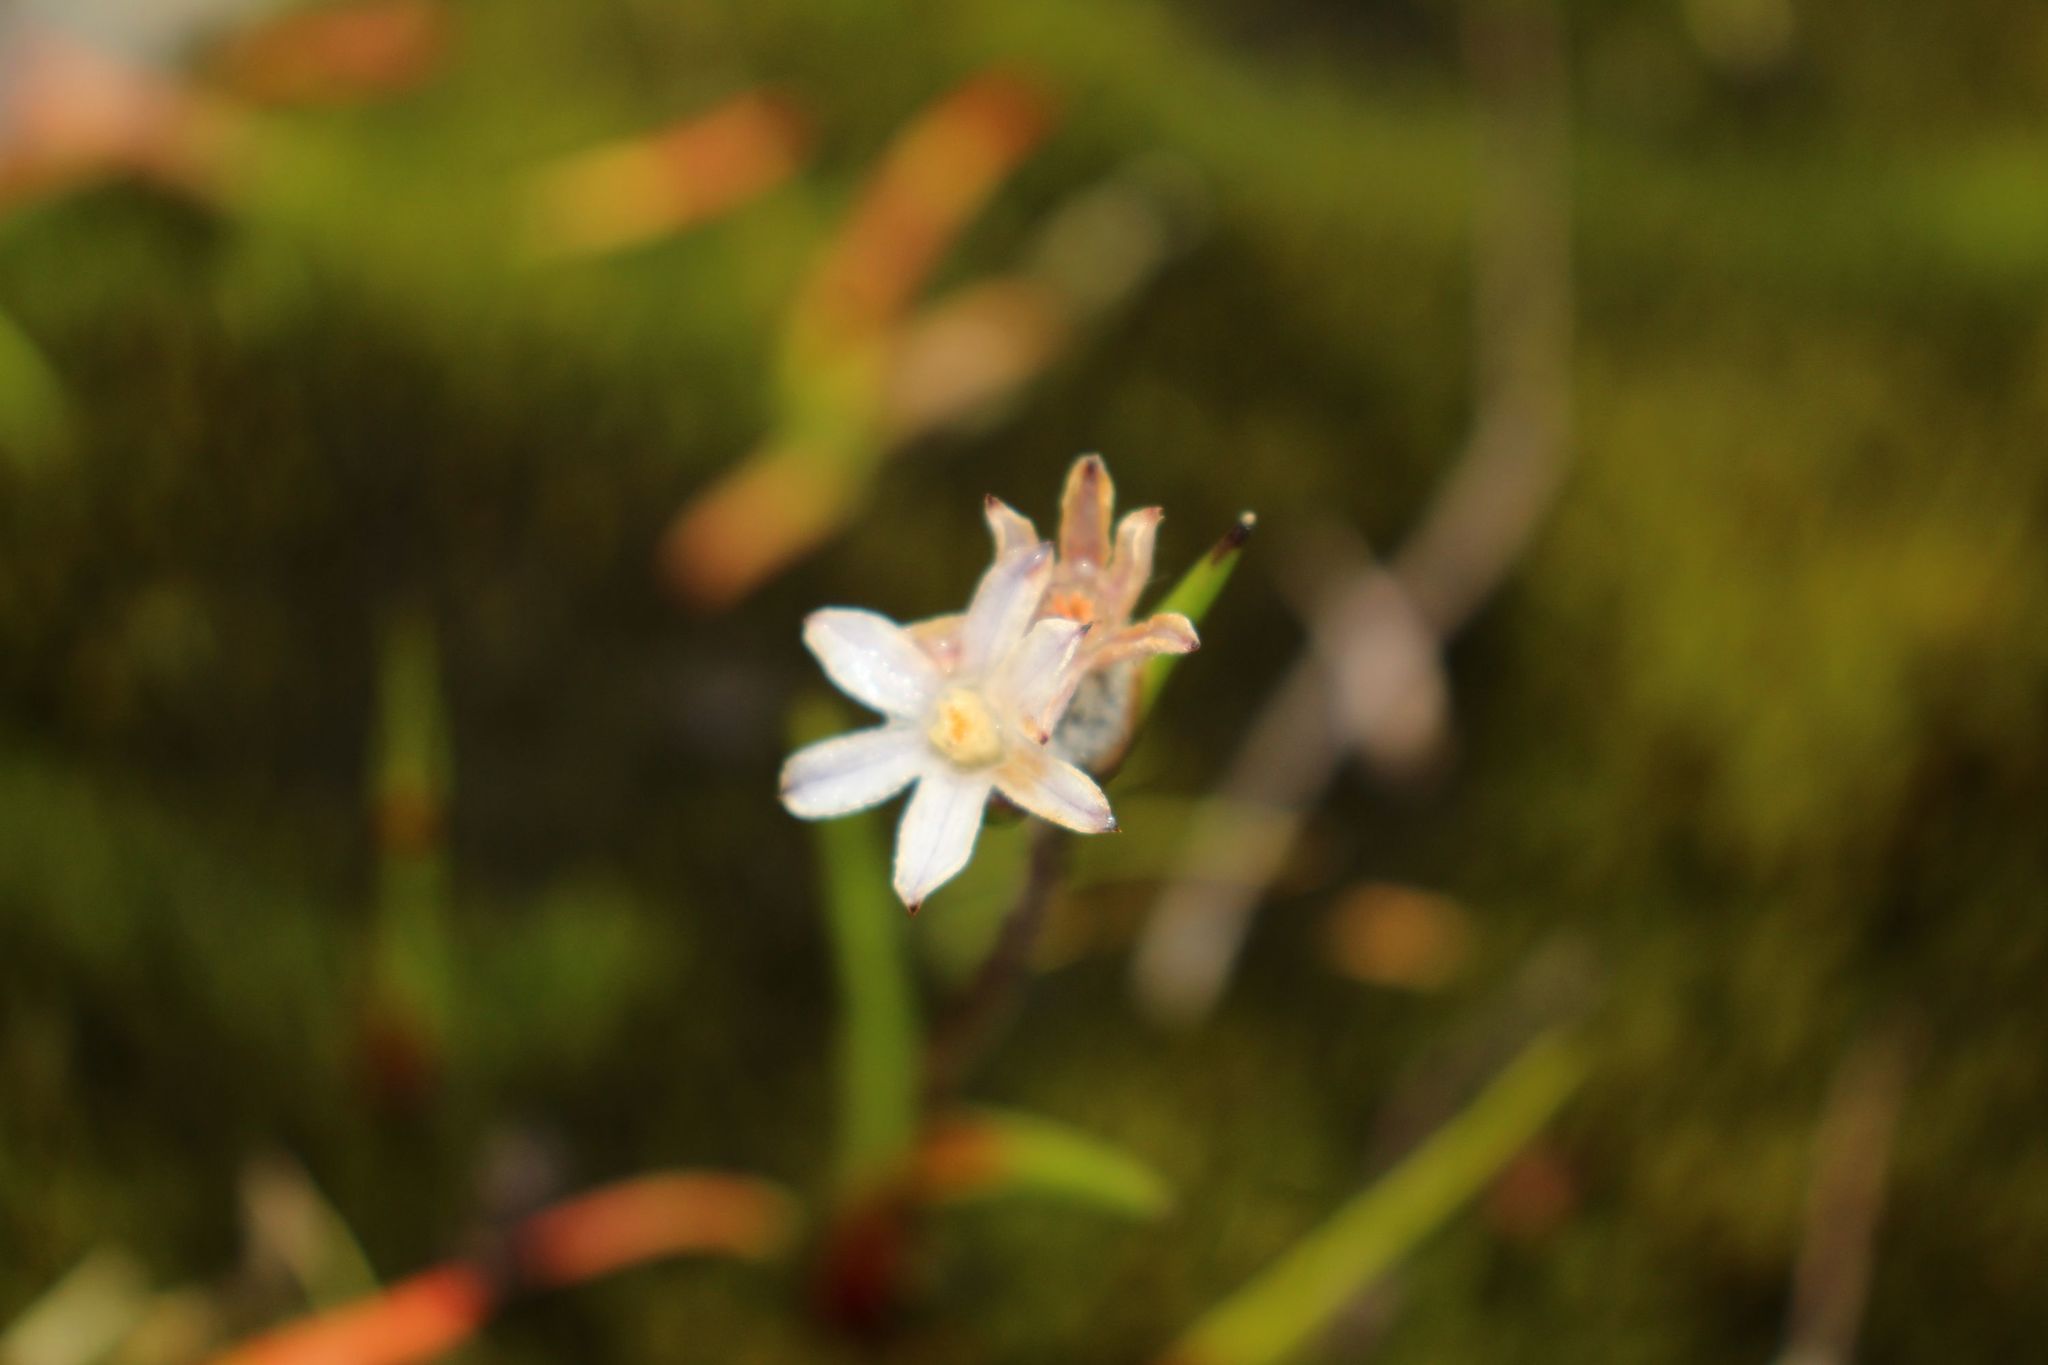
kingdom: Plantae
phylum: Tracheophyta
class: Liliopsida
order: Commelinales
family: Haemodoraceae
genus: Tribonanthes
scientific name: Tribonanthes keigheryi
